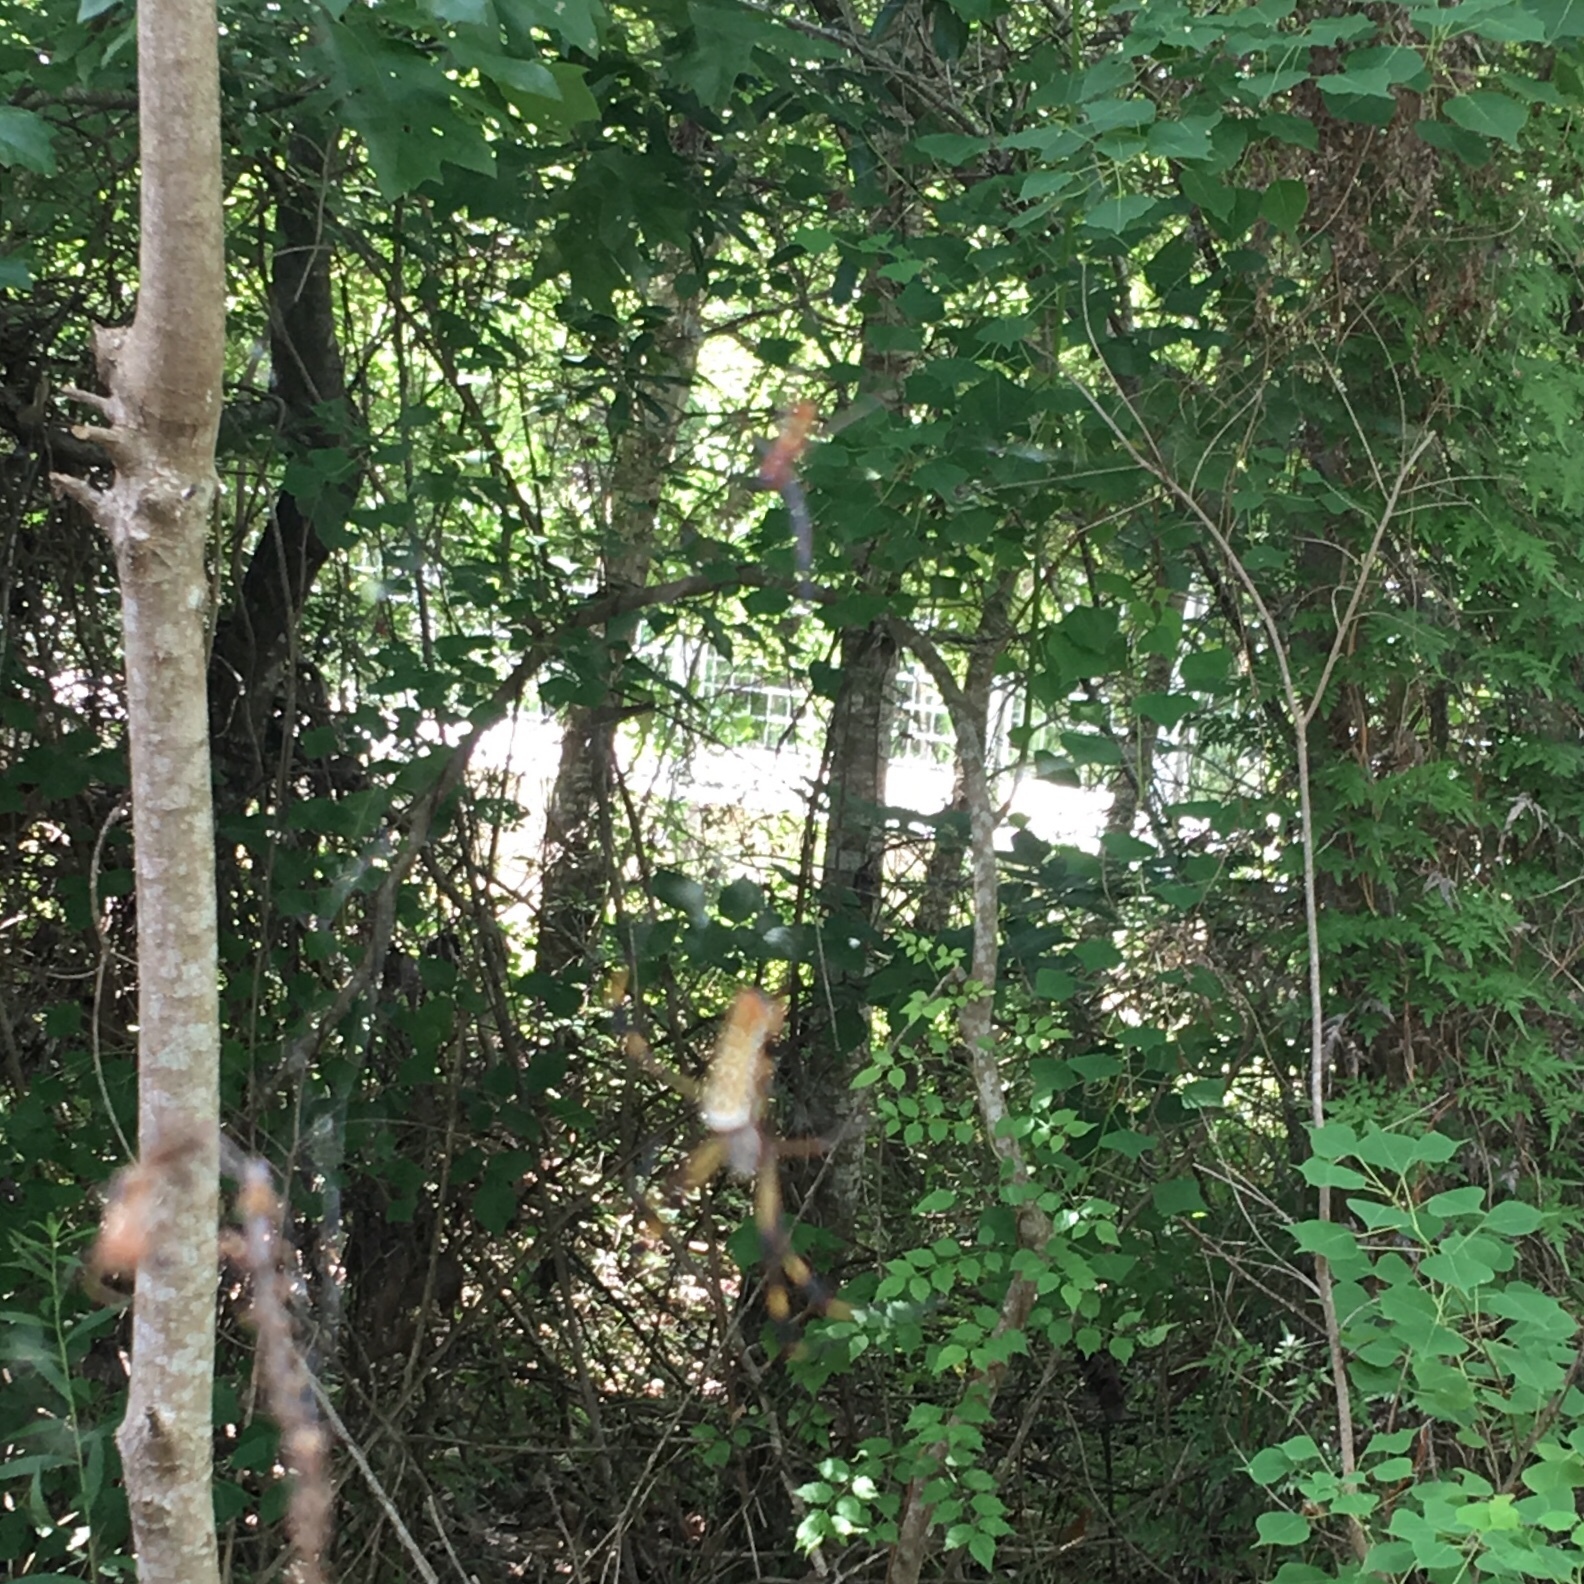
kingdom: Animalia
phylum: Arthropoda
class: Arachnida
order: Araneae
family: Araneidae
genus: Trichonephila
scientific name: Trichonephila clavipes
